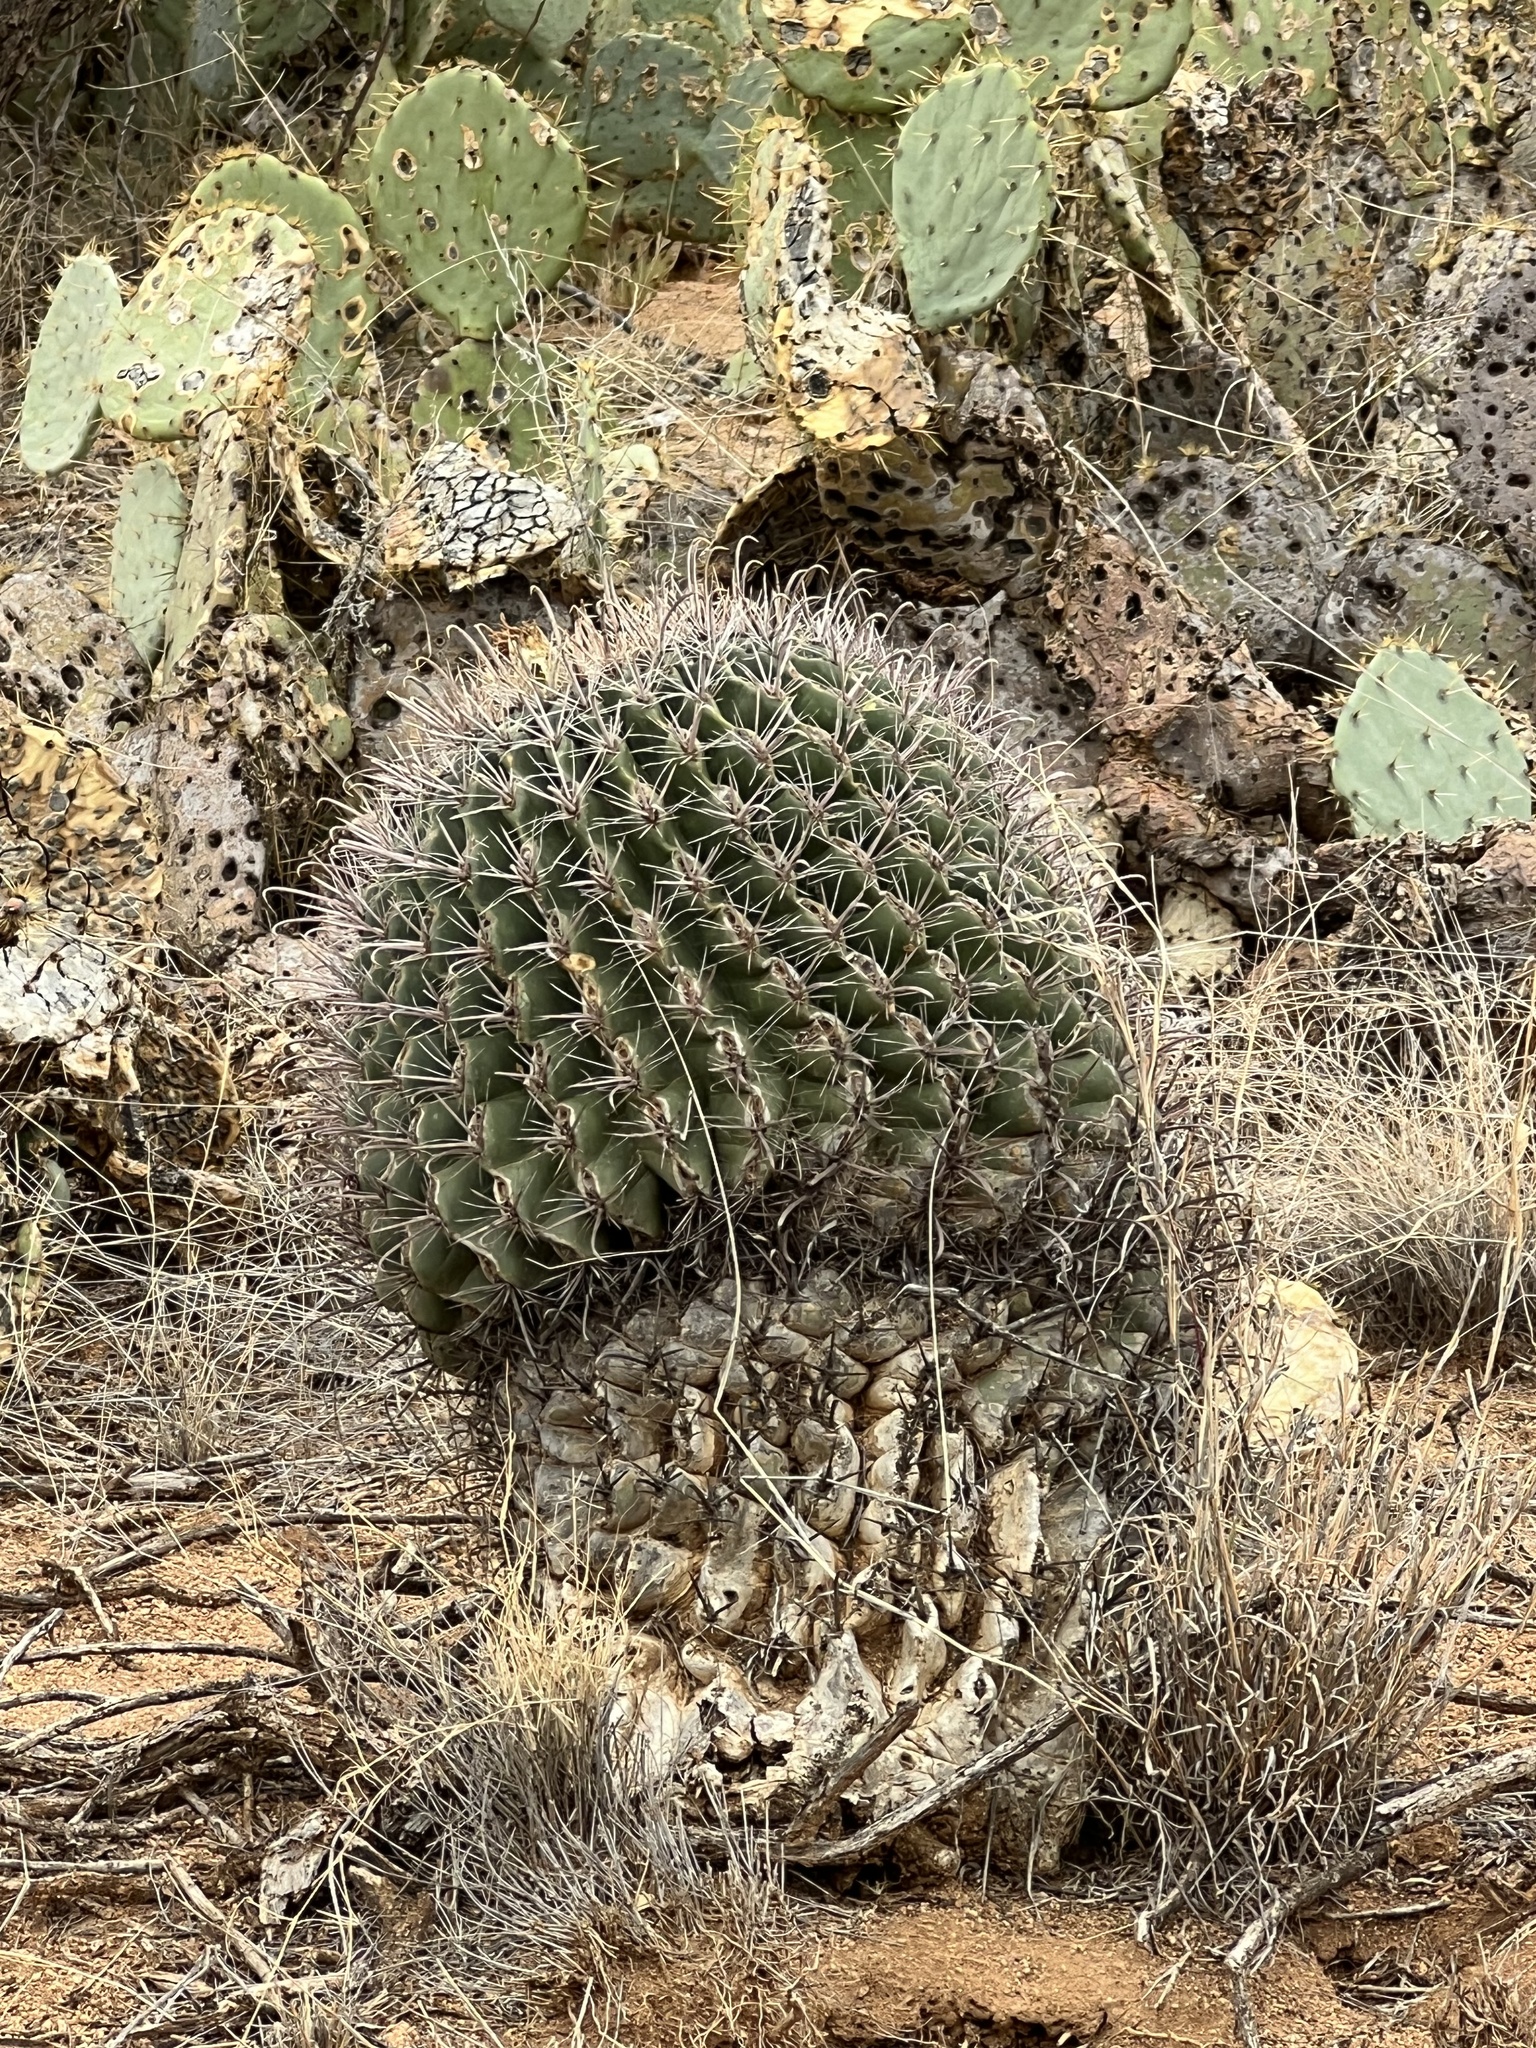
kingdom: Plantae
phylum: Tracheophyta
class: Magnoliopsida
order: Caryophyllales
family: Cactaceae
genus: Ferocactus
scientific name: Ferocactus wislizeni
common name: Candy barrel cactus
